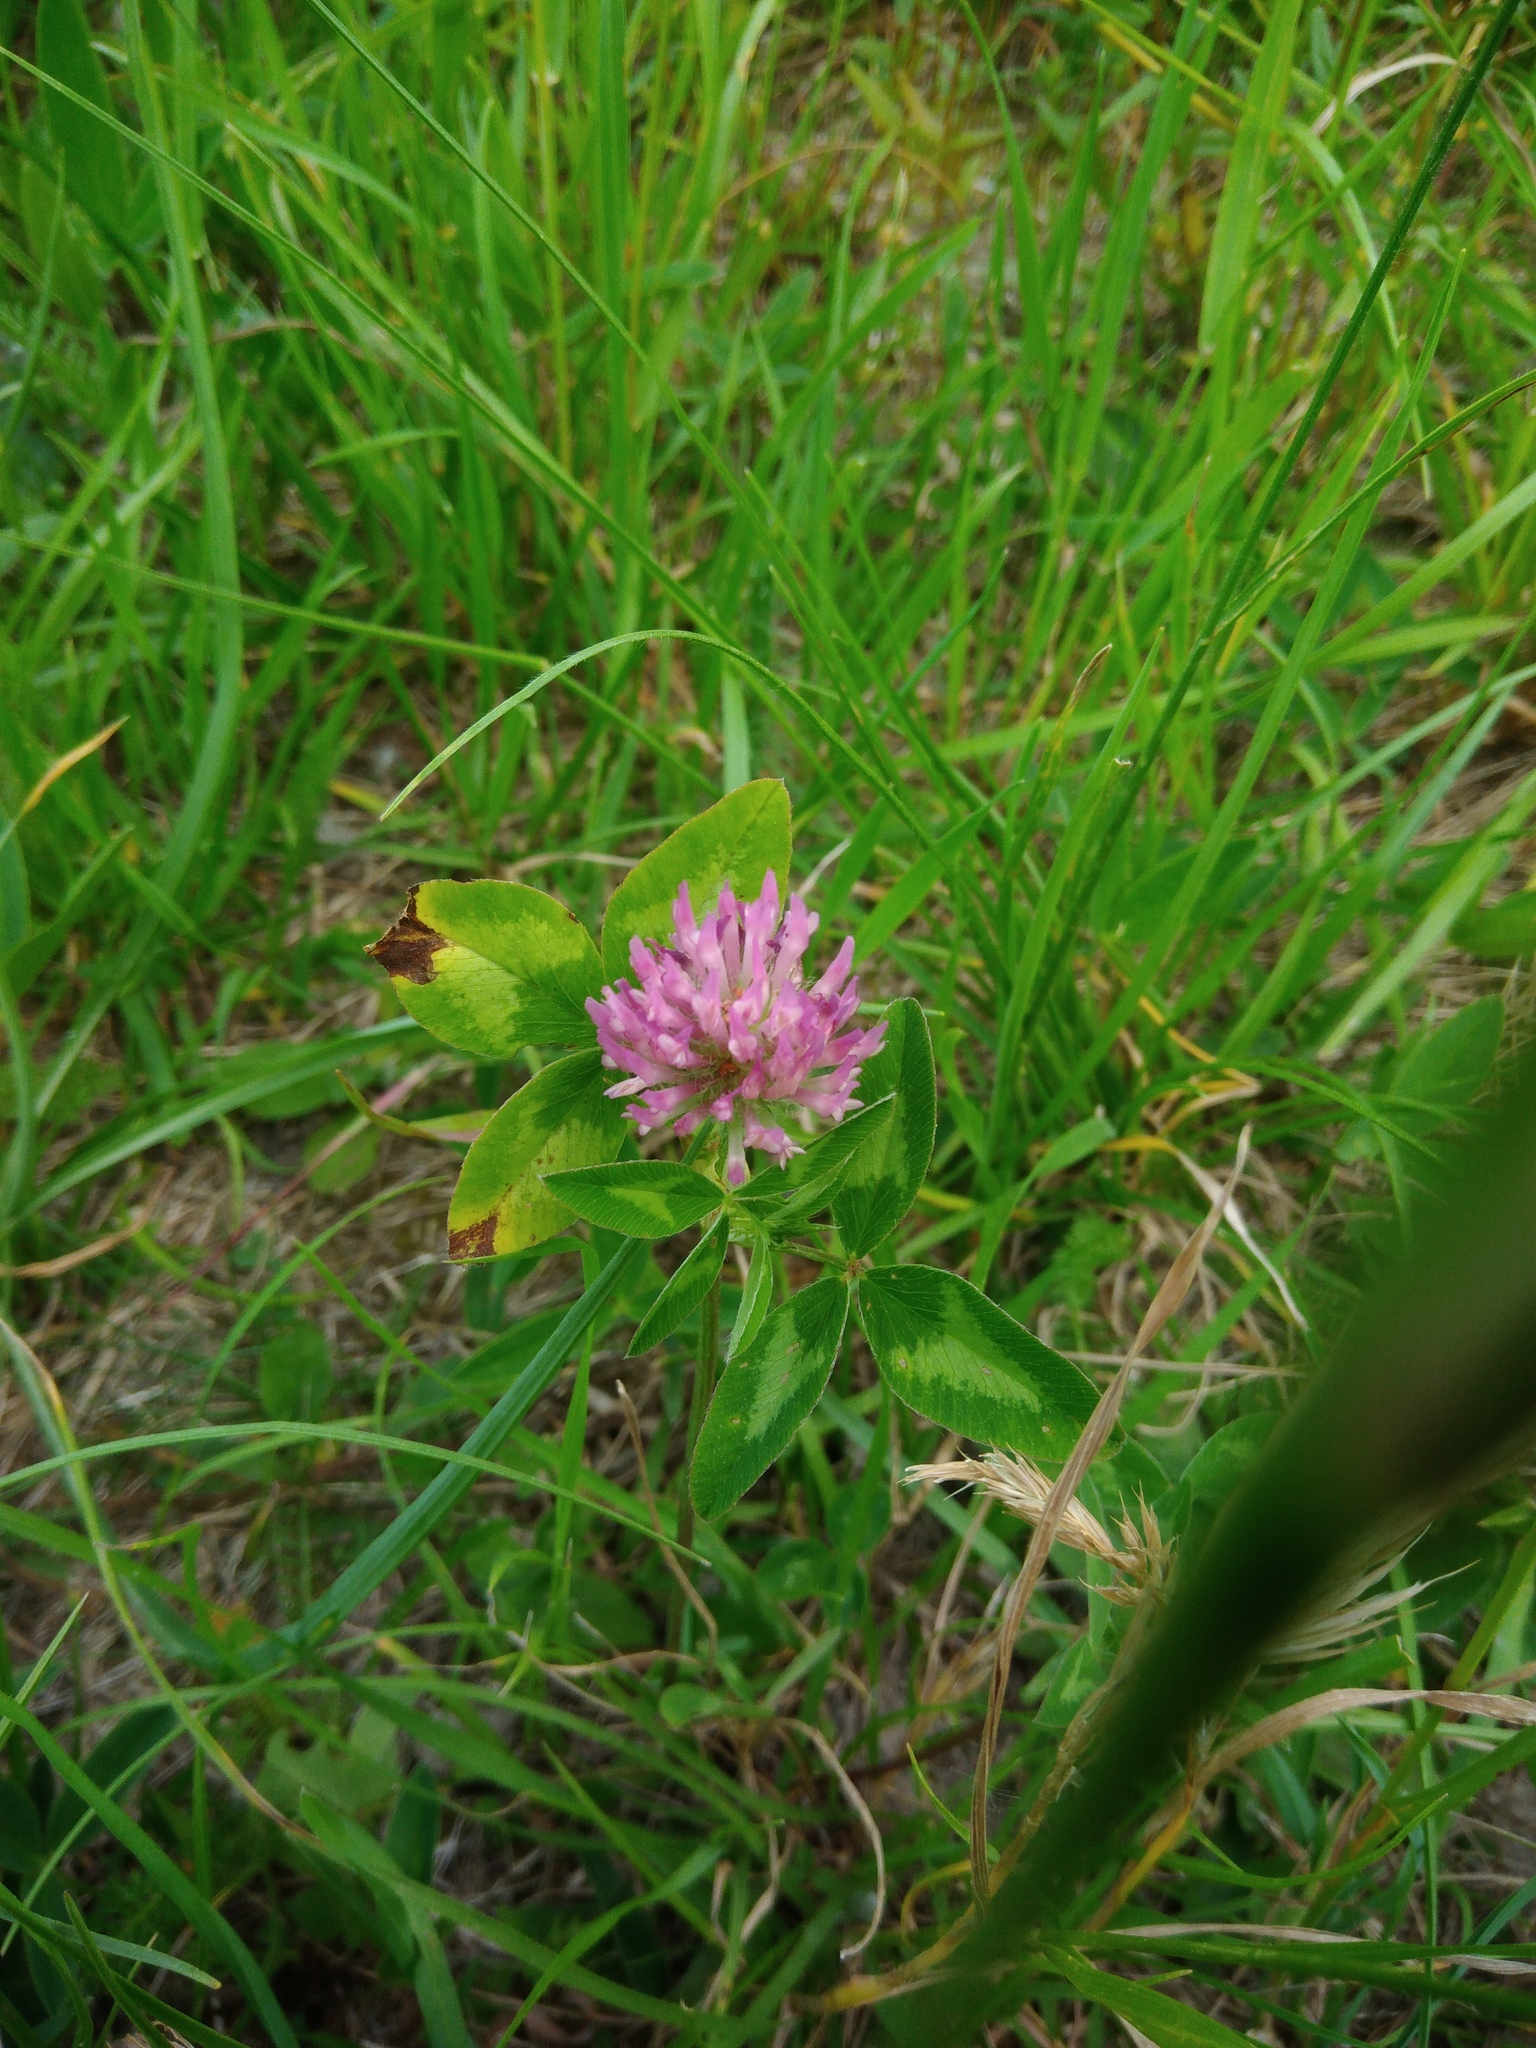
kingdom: Plantae
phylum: Tracheophyta
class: Magnoliopsida
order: Fabales
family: Fabaceae
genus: Trifolium
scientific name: Trifolium pratense
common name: Red clover
